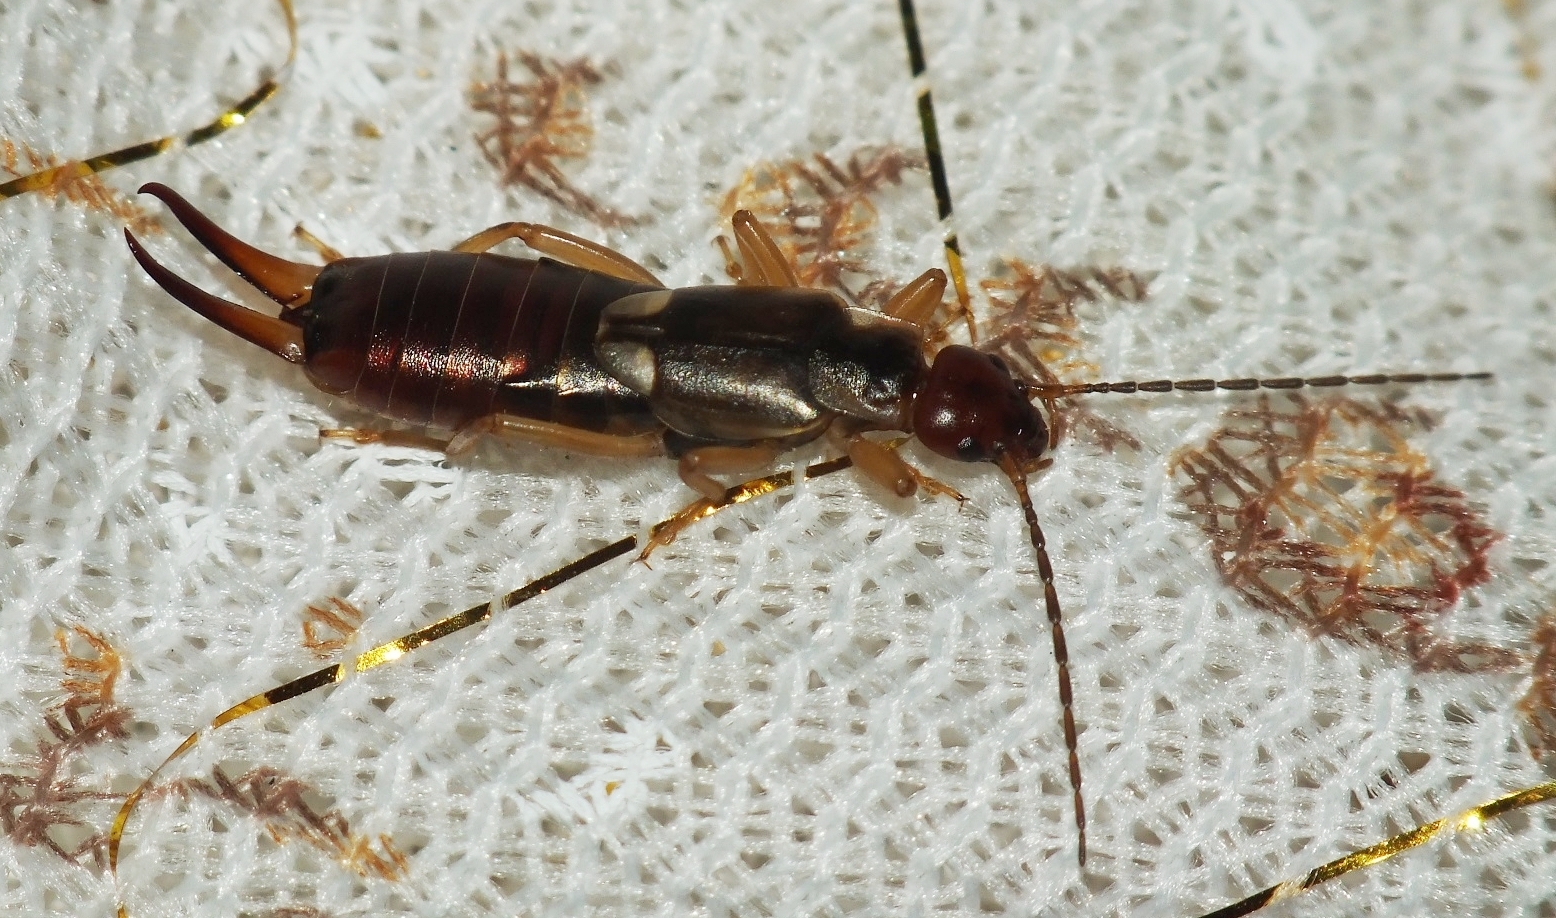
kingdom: Animalia
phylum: Arthropoda
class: Insecta
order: Dermaptera
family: Forficulidae
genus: Forficula
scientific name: Forficula
